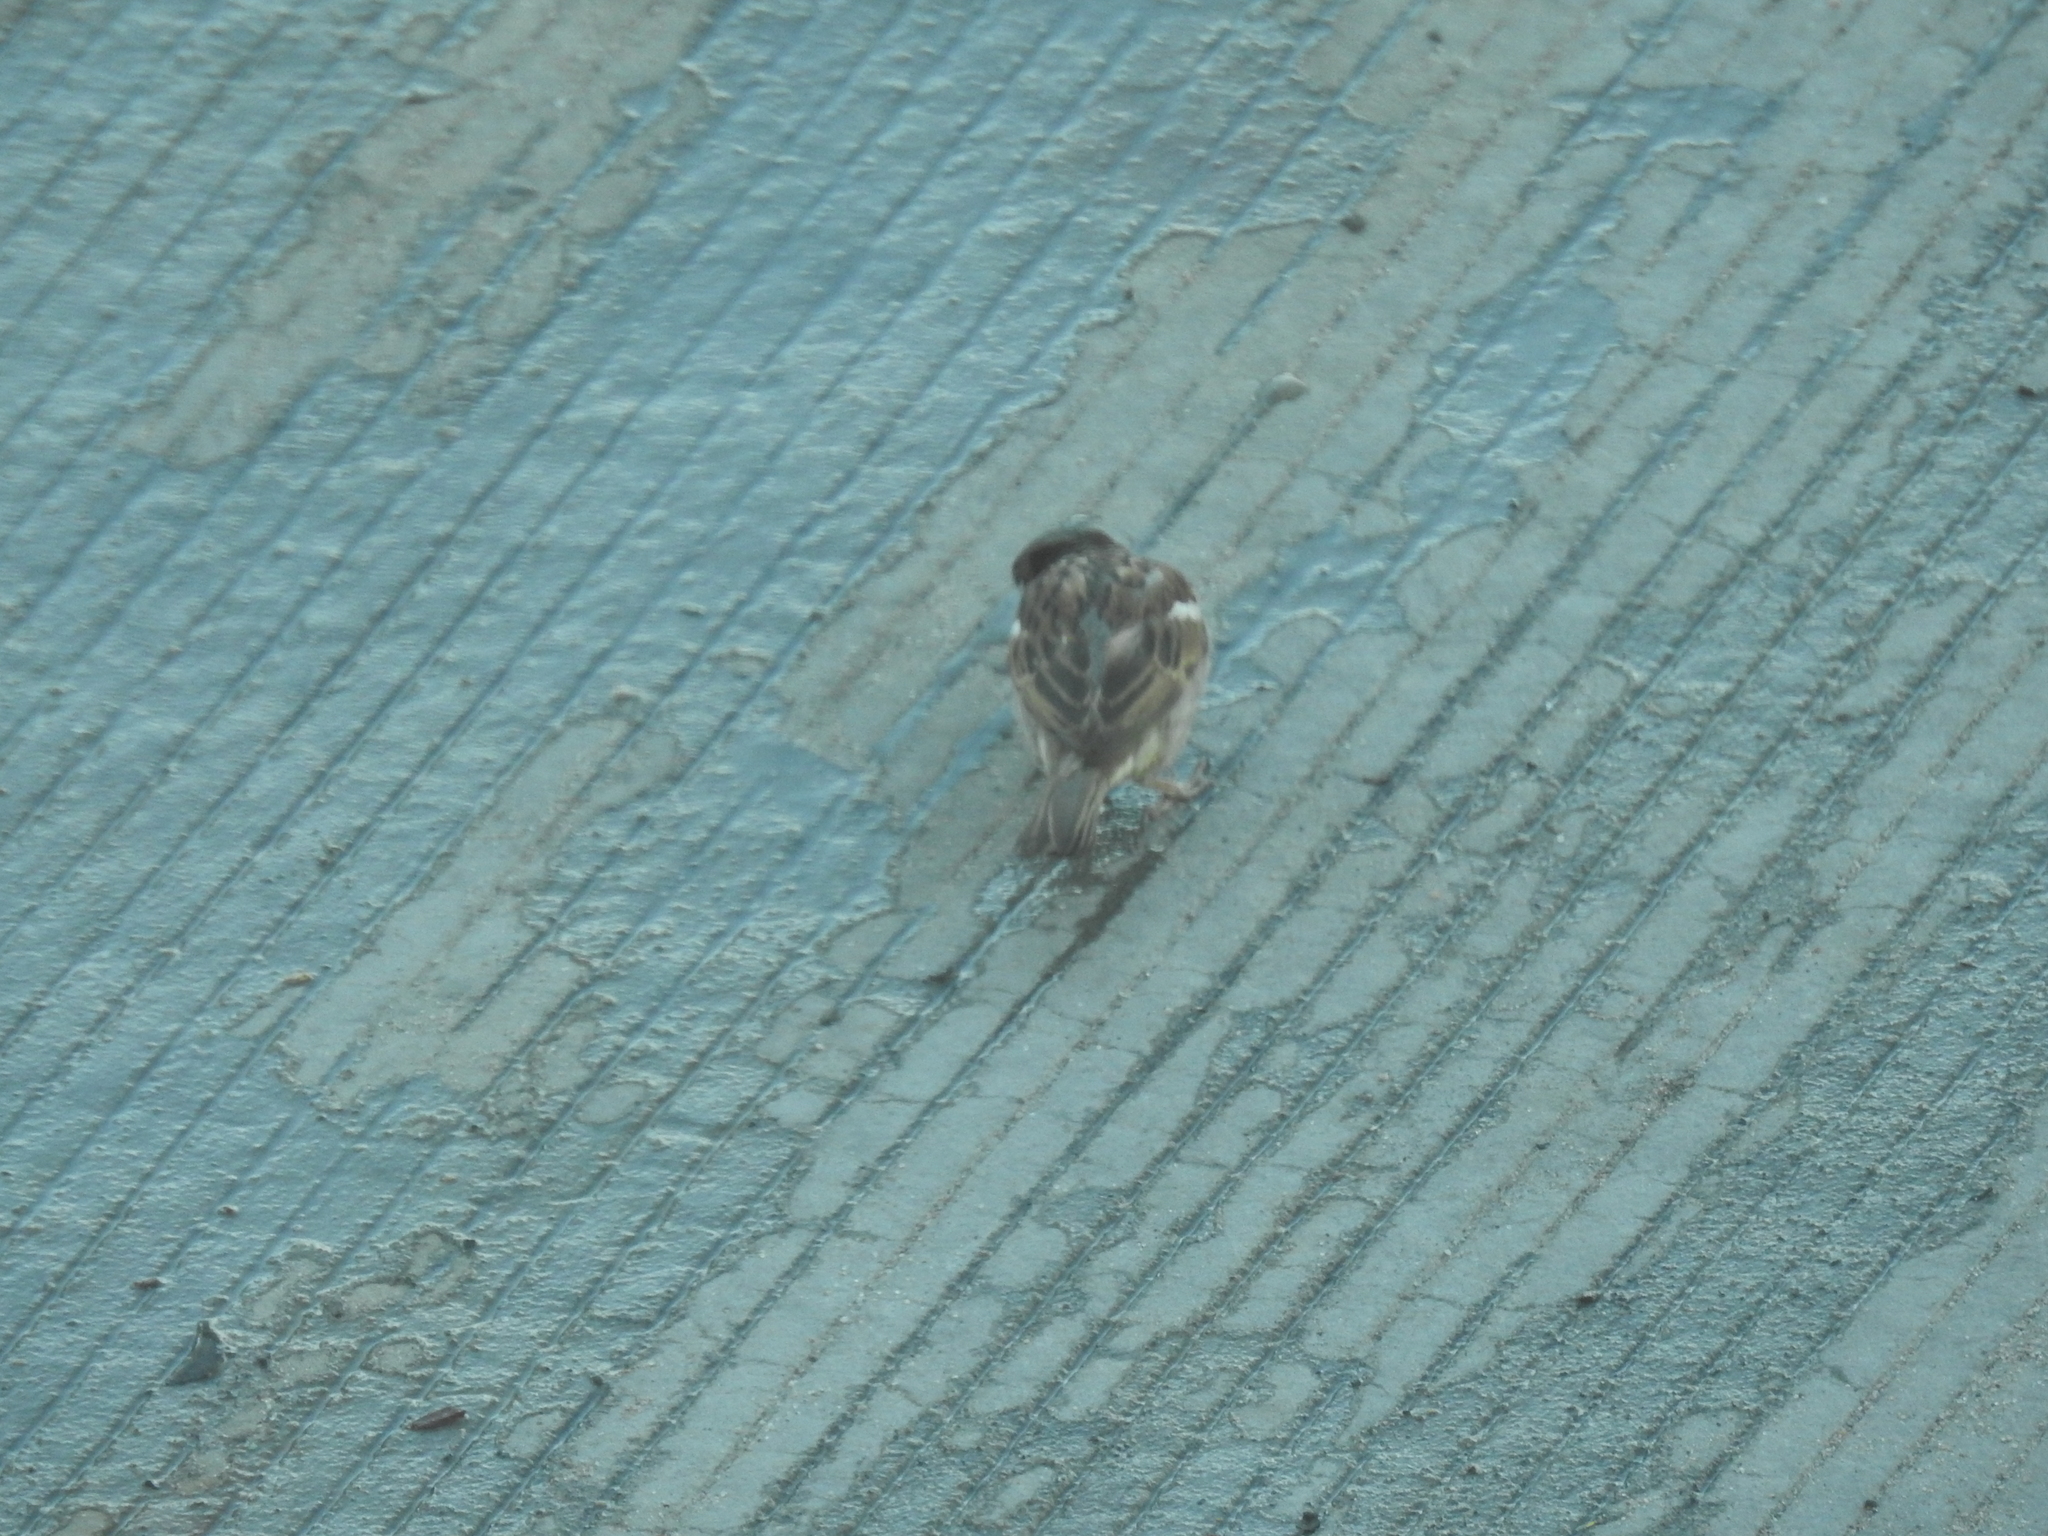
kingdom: Animalia
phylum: Chordata
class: Aves
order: Passeriformes
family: Passeridae
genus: Passer
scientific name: Passer domesticus
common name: House sparrow
